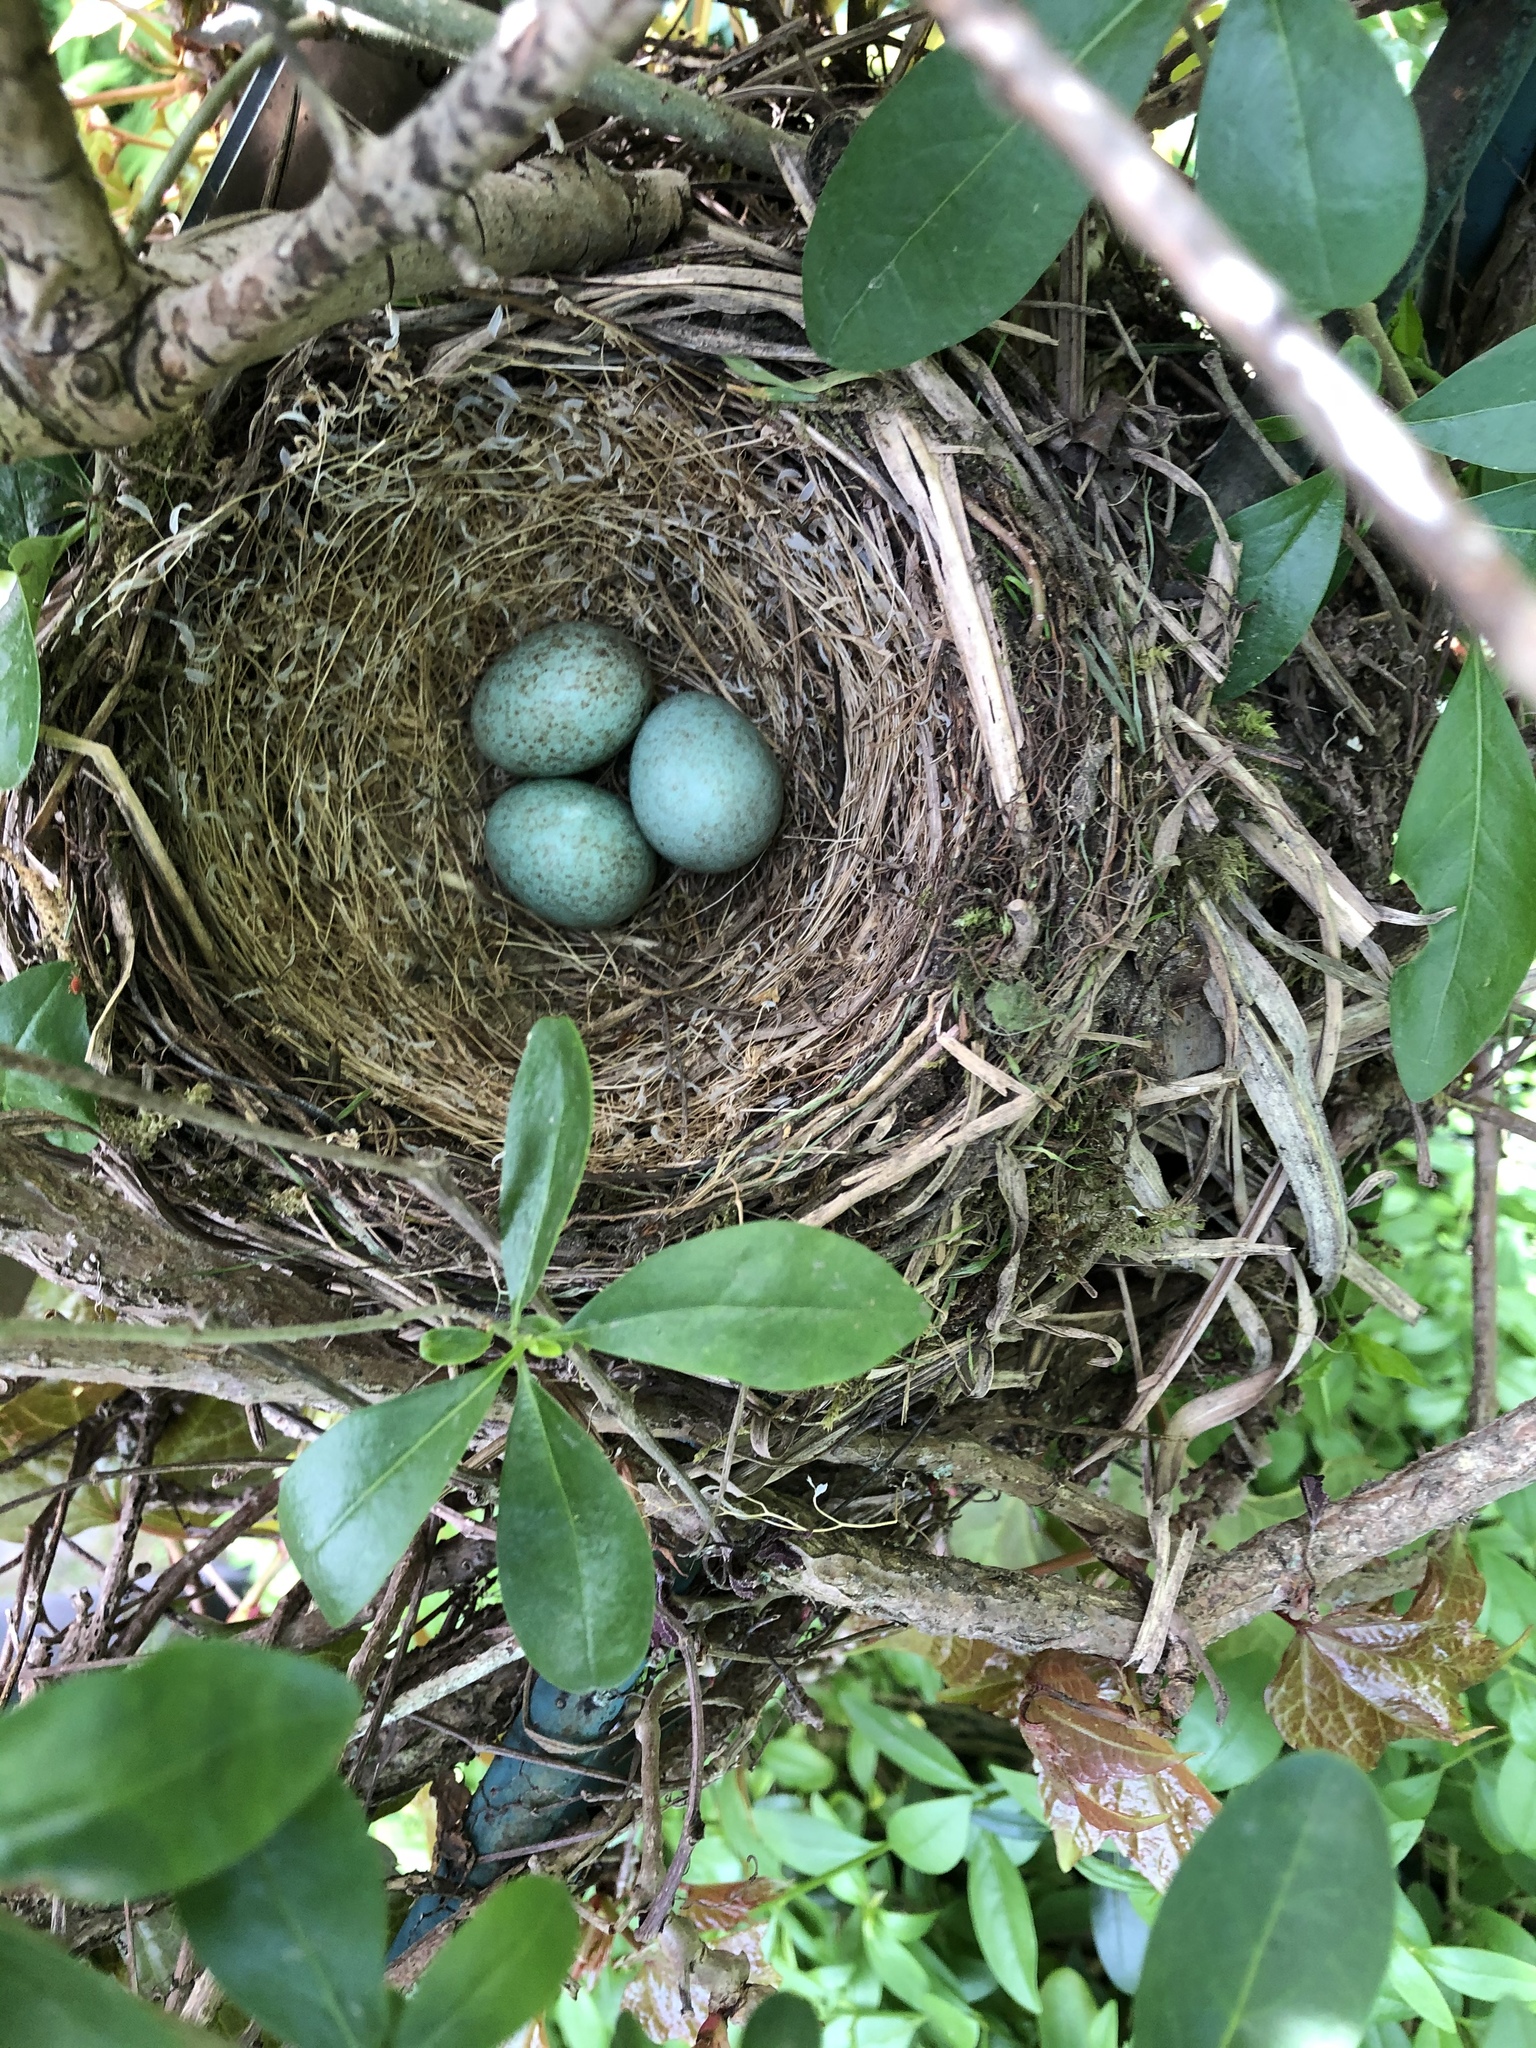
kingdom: Animalia
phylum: Chordata
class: Aves
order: Passeriformes
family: Turdidae
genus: Turdus
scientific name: Turdus merula
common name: Common blackbird
